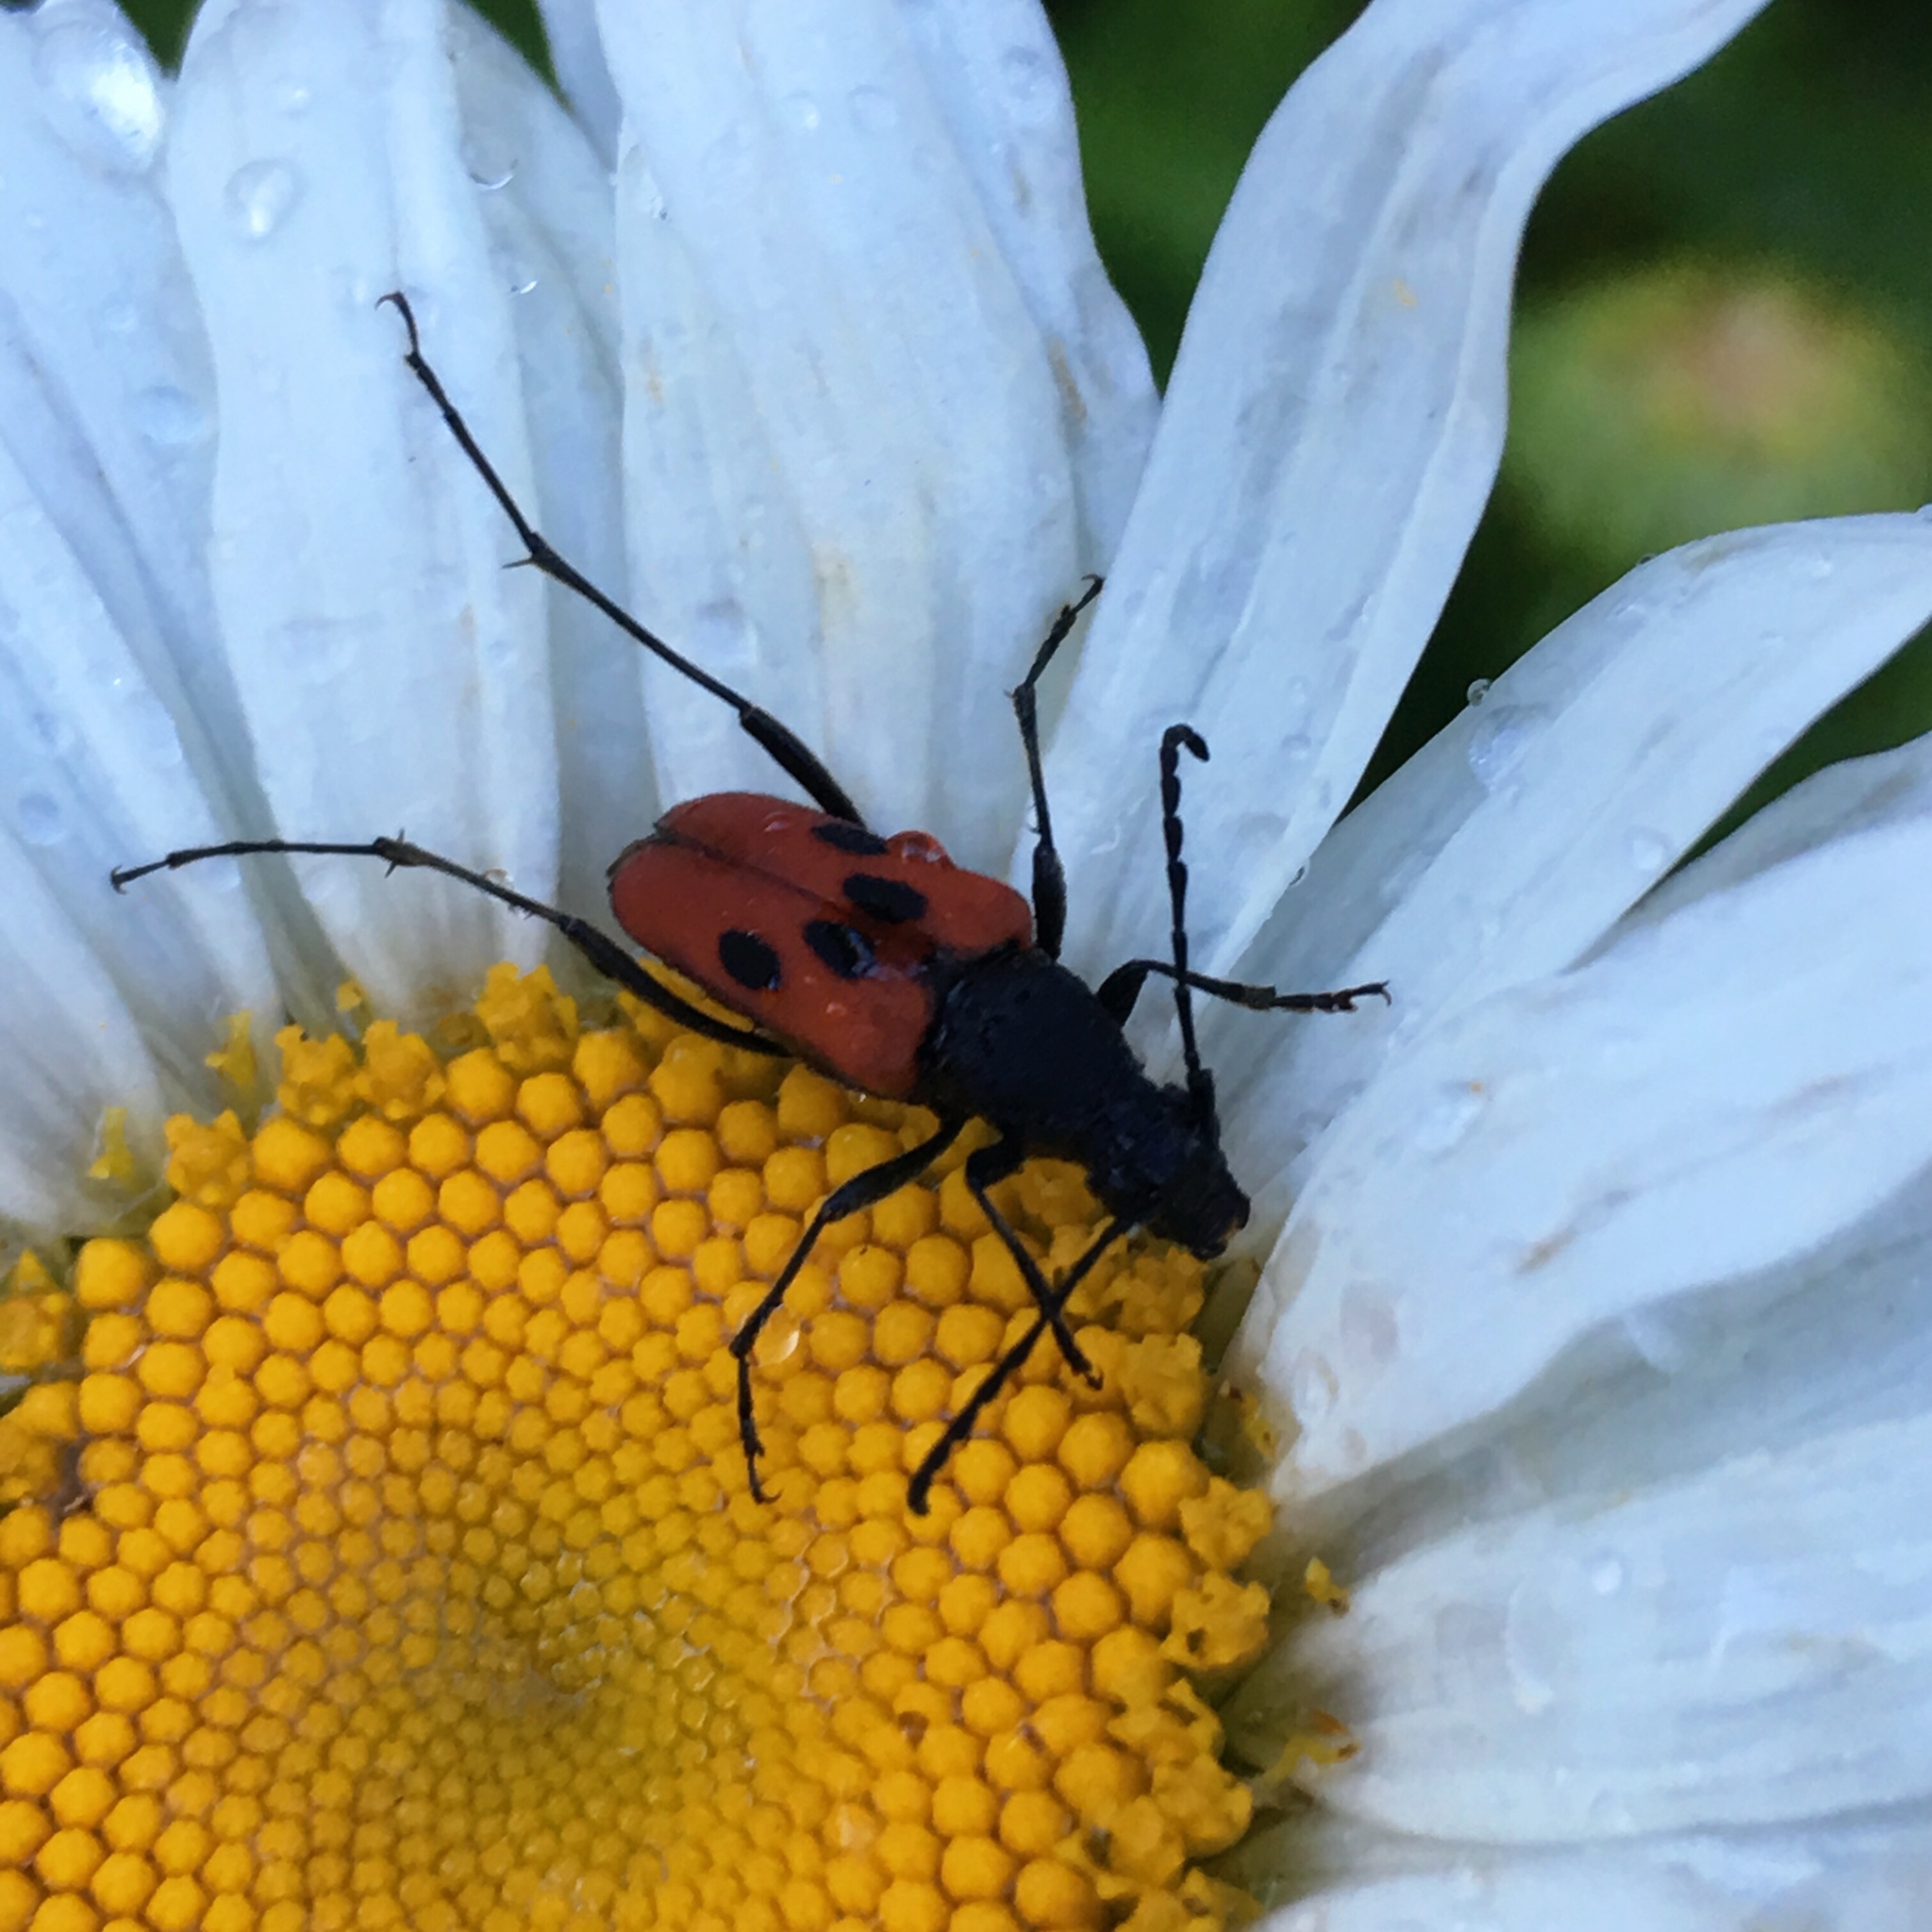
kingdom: Animalia
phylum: Arthropoda
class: Insecta
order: Coleoptera
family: Cerambycidae
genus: Anastrangalia
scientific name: Anastrangalia laetifica
